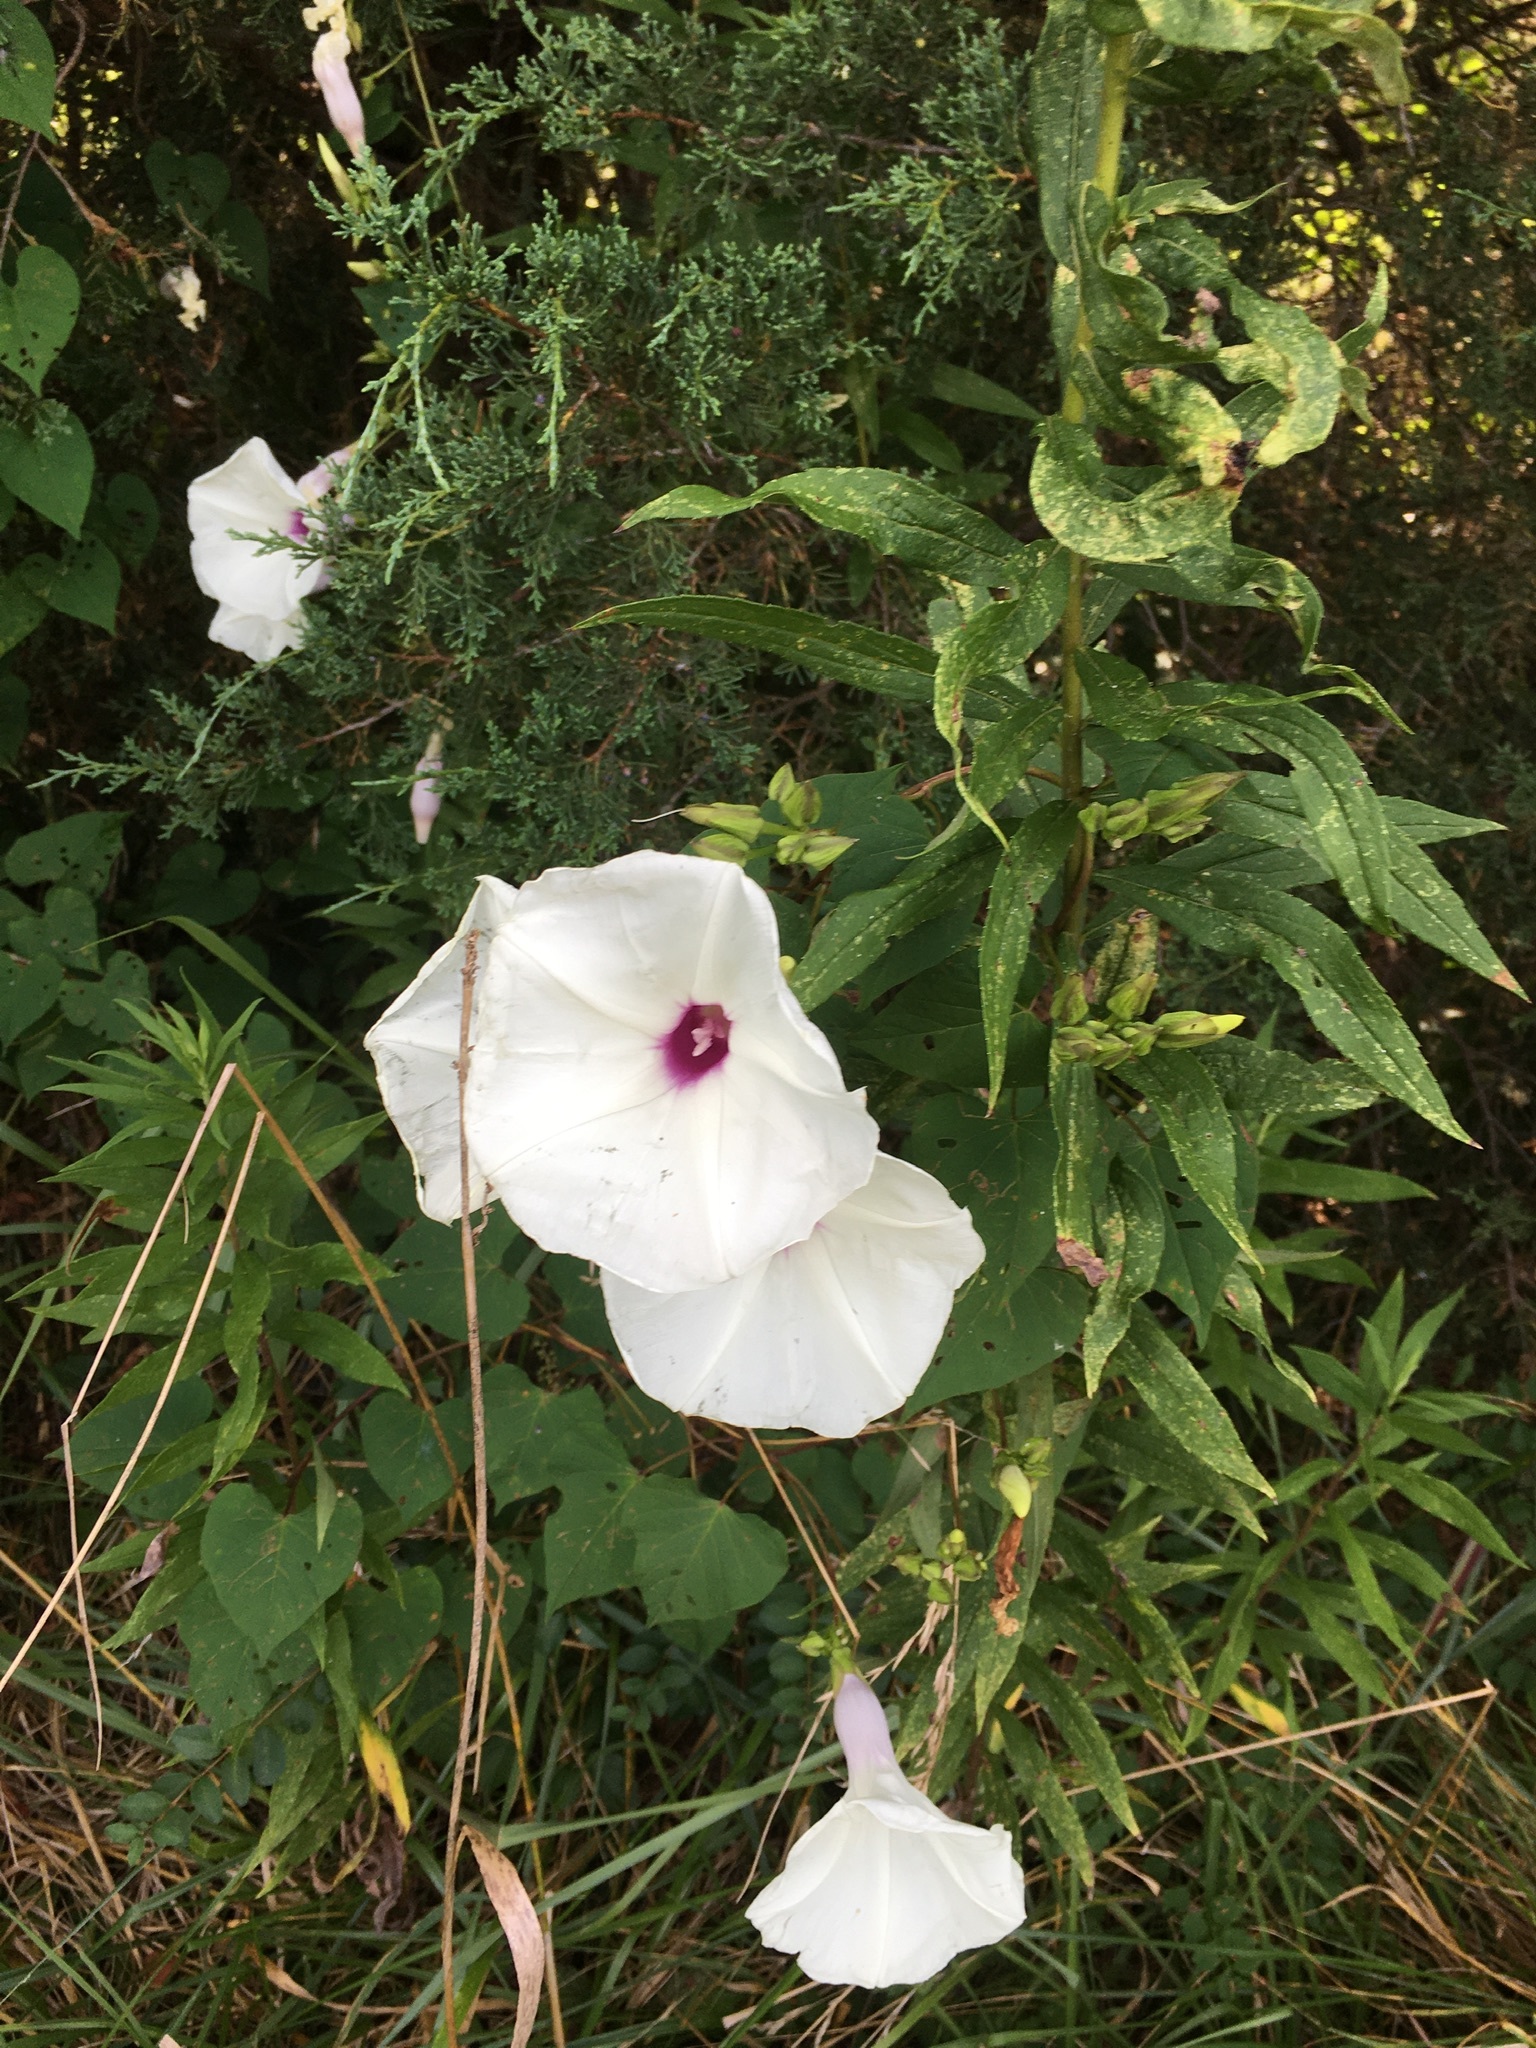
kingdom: Plantae
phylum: Tracheophyta
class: Magnoliopsida
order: Solanales
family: Convolvulaceae
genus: Ipomoea
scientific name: Ipomoea pandurata
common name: Man-of-the-earth
